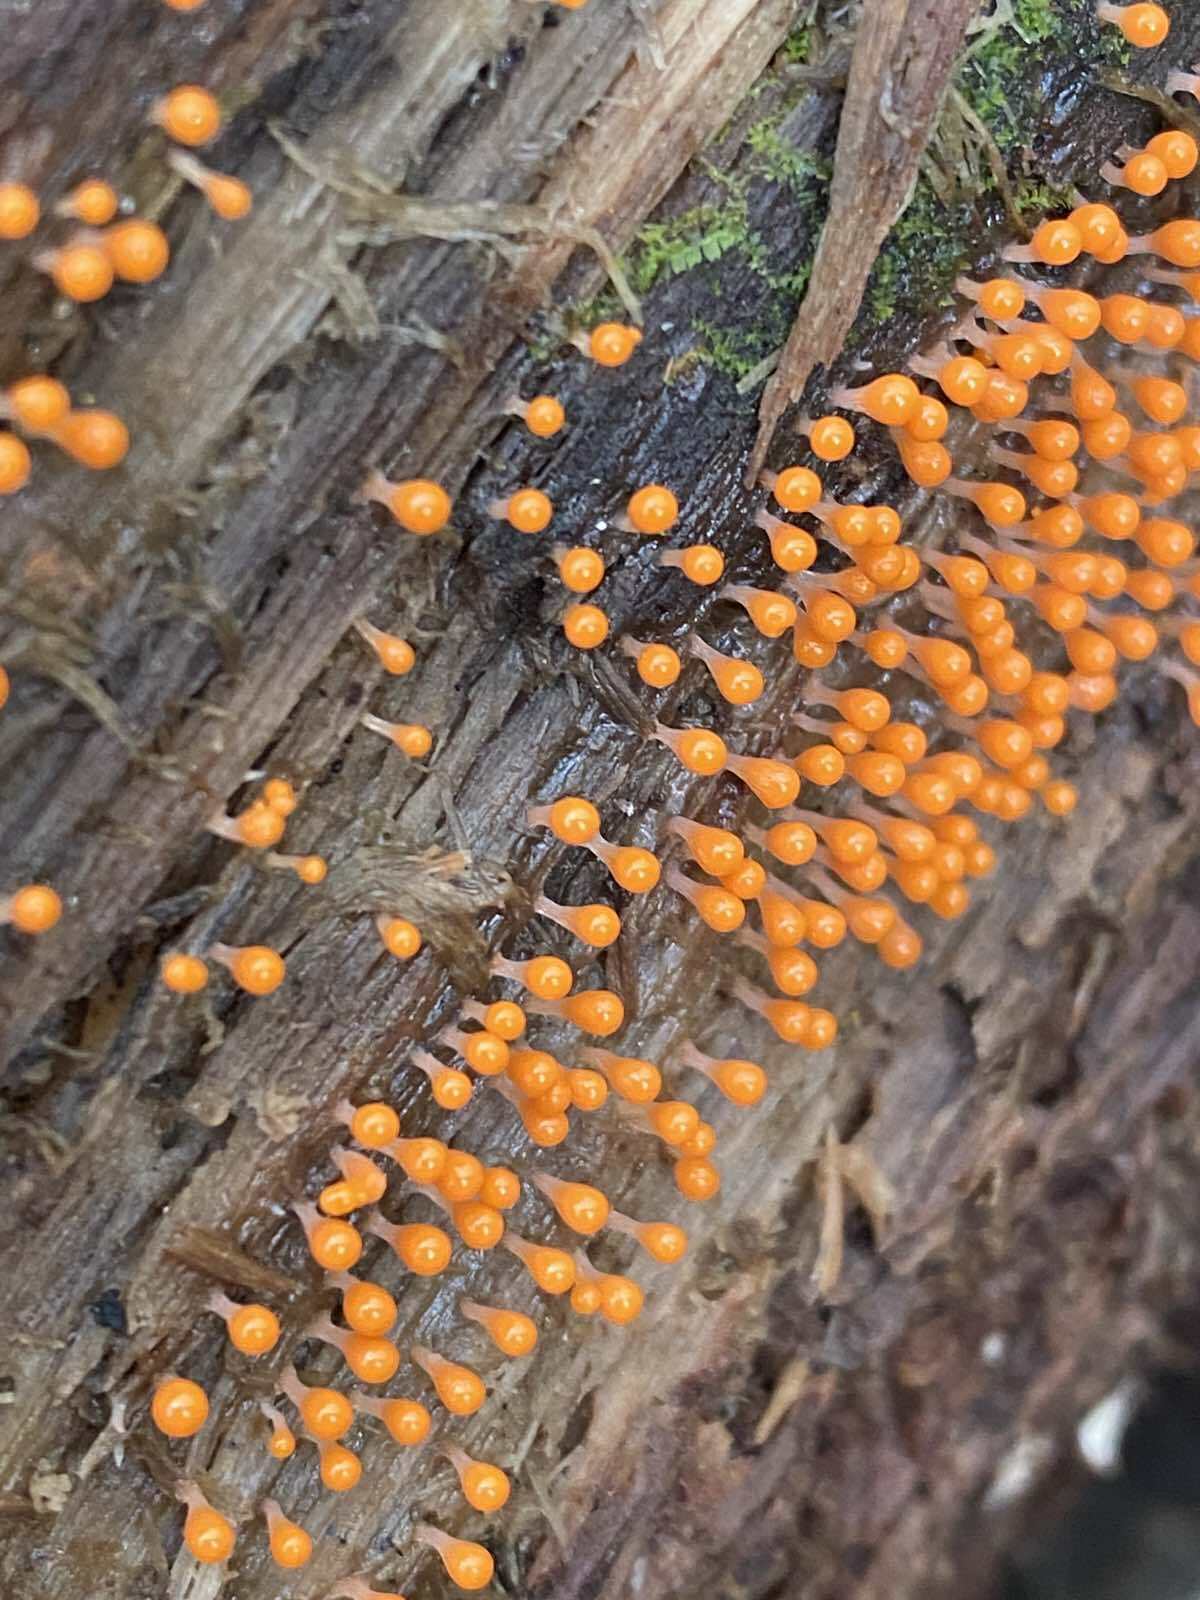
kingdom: Protozoa
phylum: Mycetozoa
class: Myxomycetes
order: Trichiales
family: Arcyriaceae
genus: Hemitrichia
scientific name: Hemitrichia decipiens
